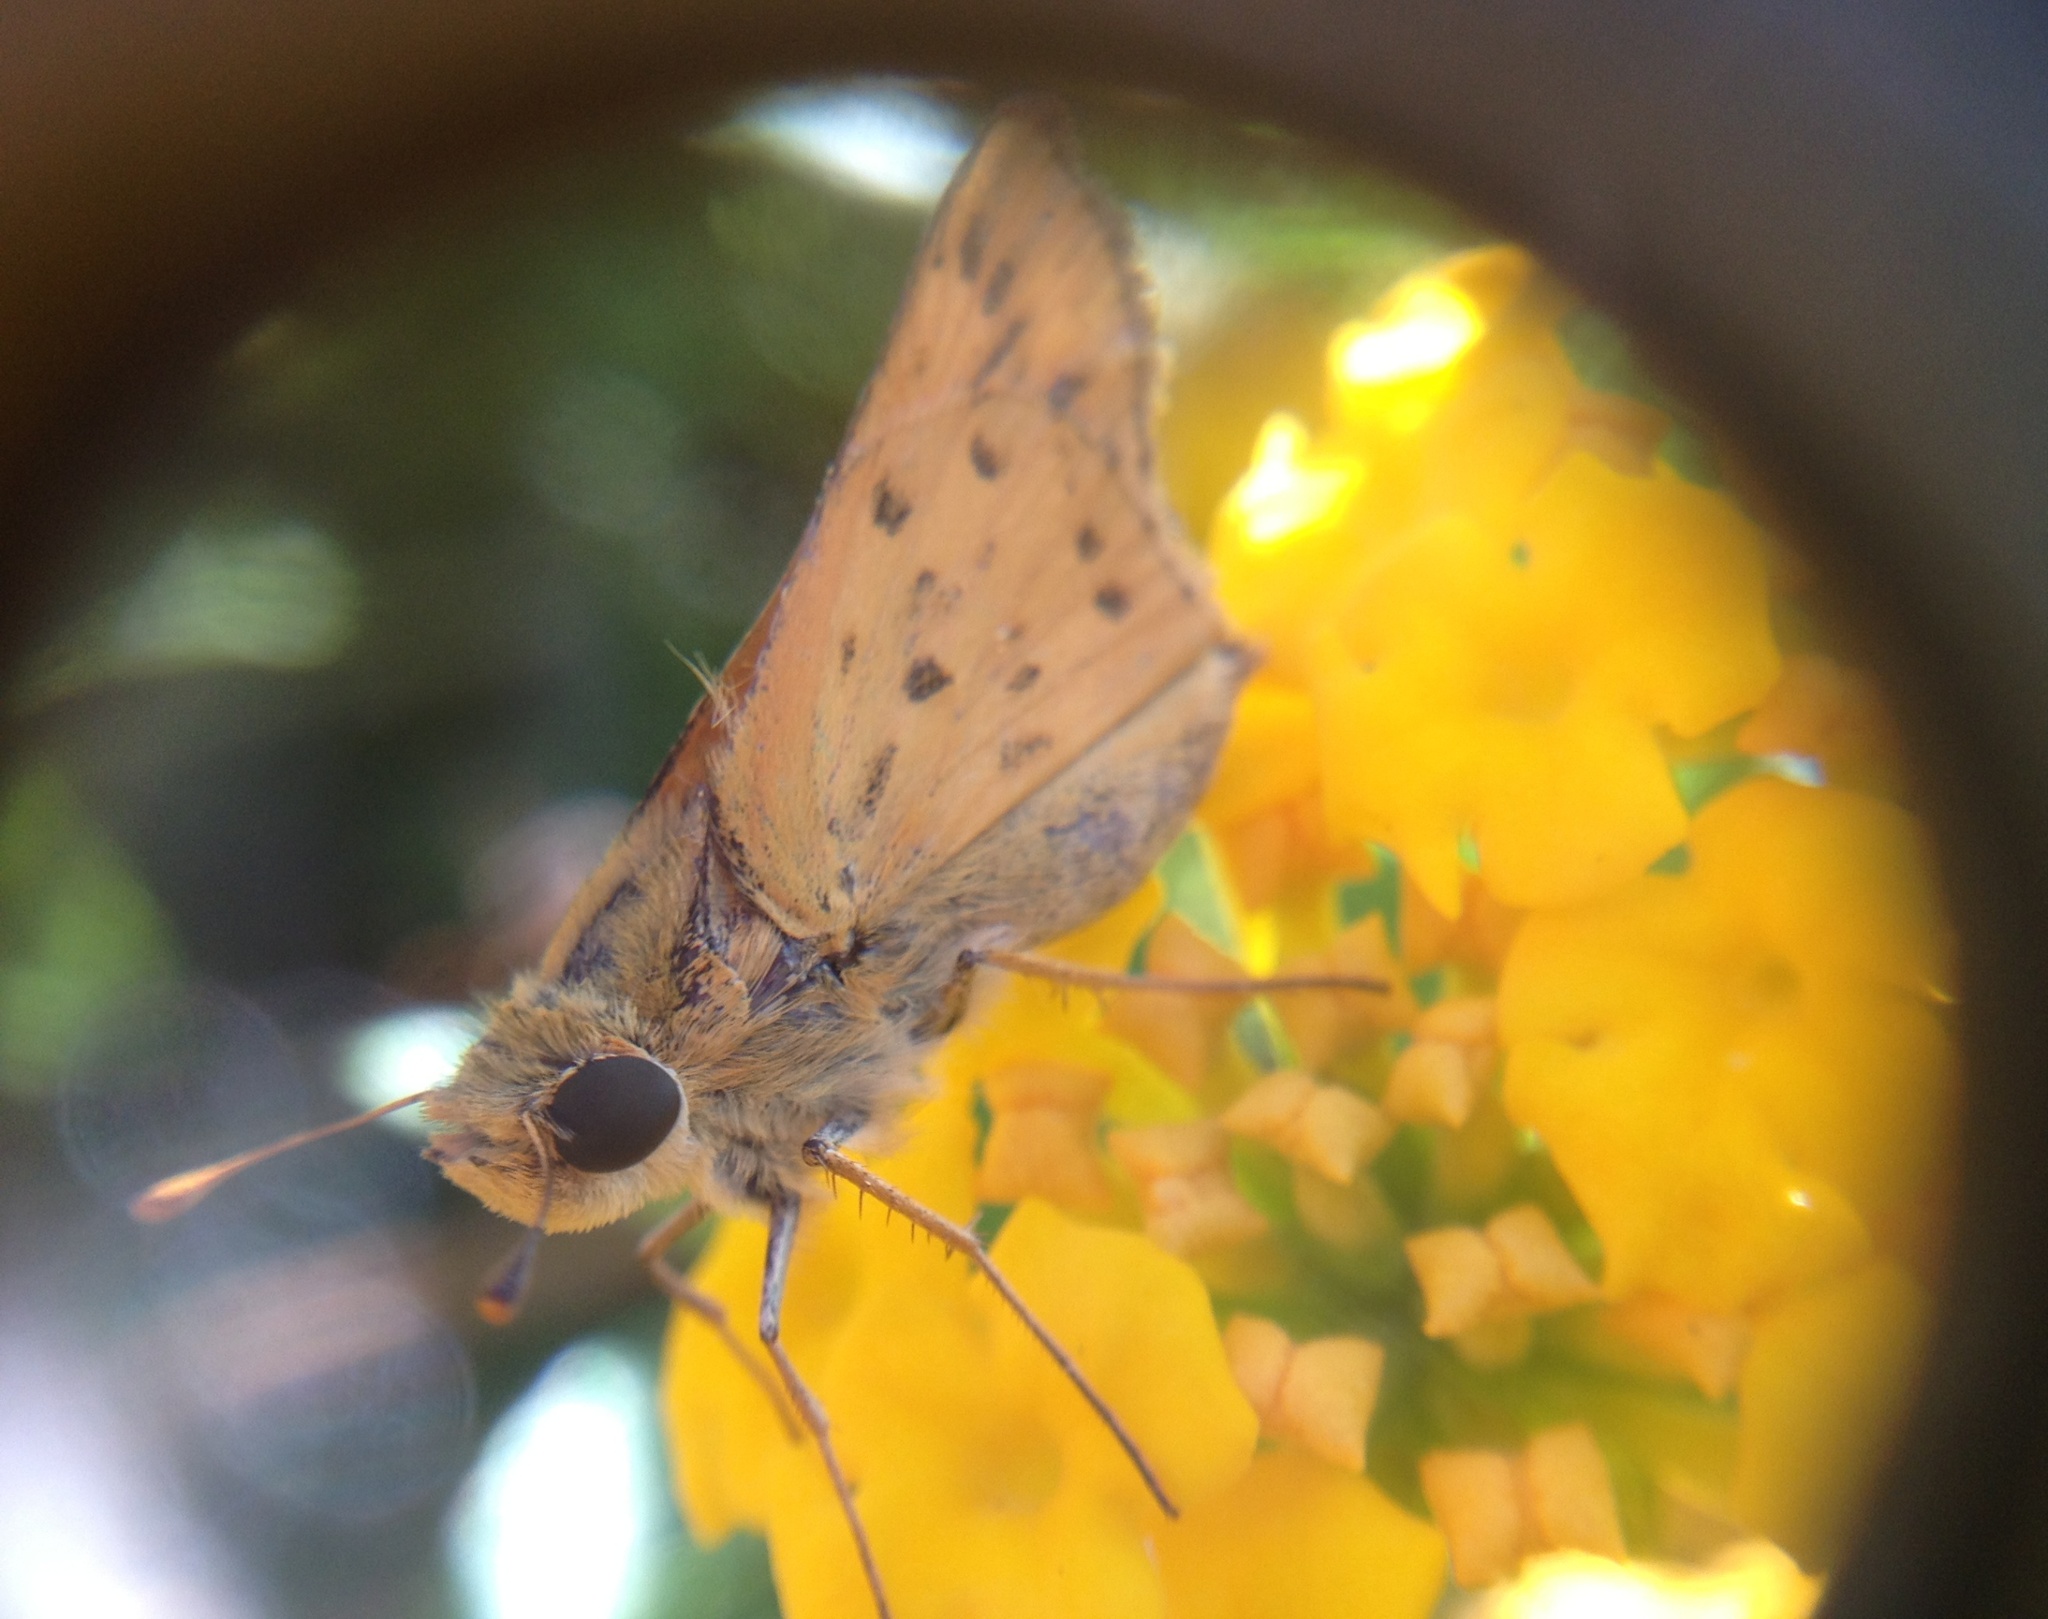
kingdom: Animalia
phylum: Arthropoda
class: Insecta
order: Lepidoptera
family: Hesperiidae
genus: Hylephila
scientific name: Hylephila phyleus
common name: Fiery skipper
